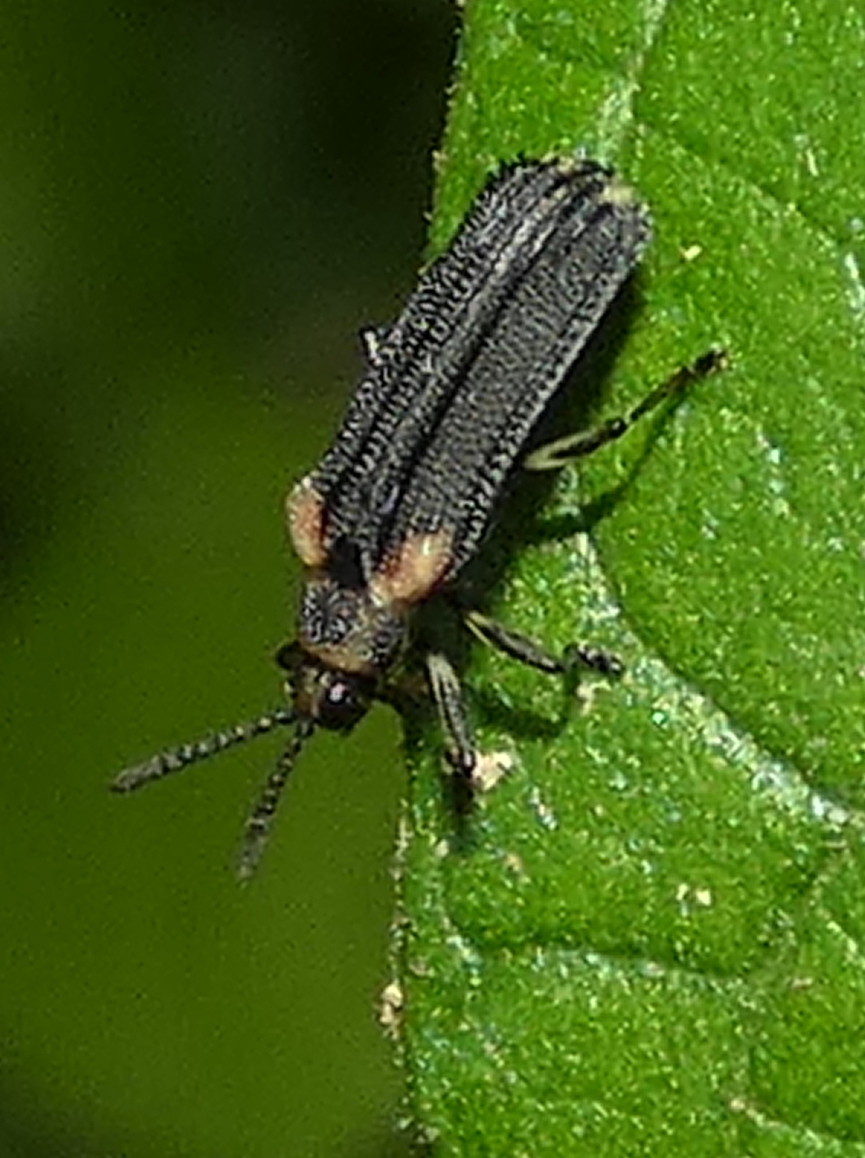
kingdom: Animalia
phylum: Arthropoda
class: Insecta
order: Coleoptera
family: Chrysomelidae
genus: Heterispa
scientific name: Heterispa vinula
